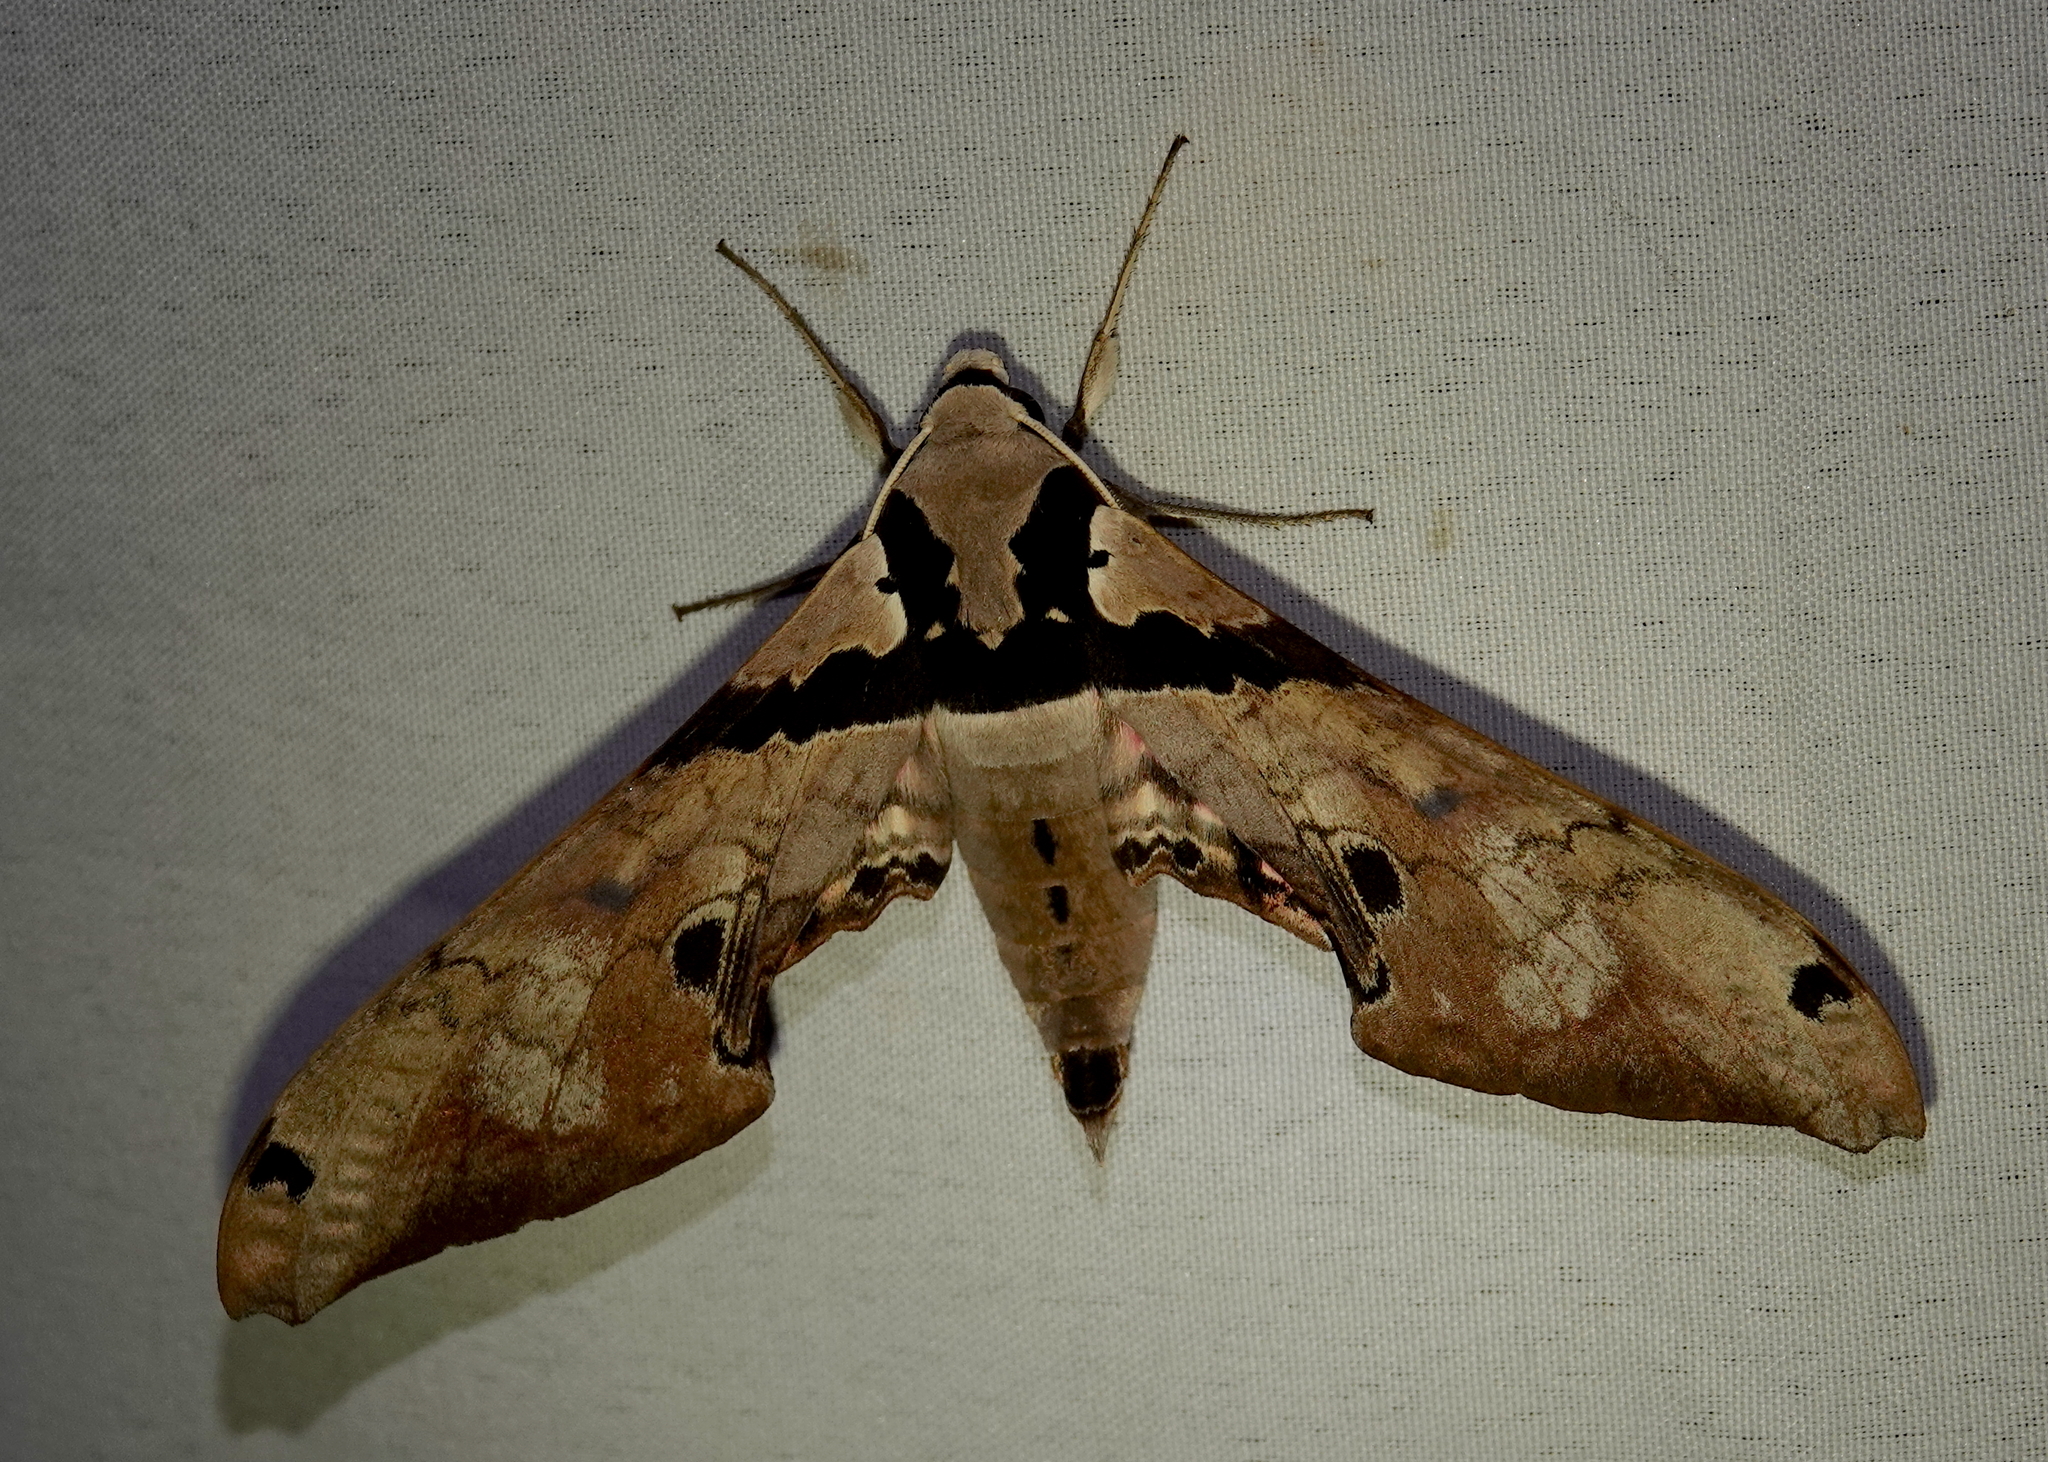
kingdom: Animalia
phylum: Arthropoda
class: Insecta
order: Lepidoptera
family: Sphingidae
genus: Adhemarius
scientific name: Adhemarius gannascus
